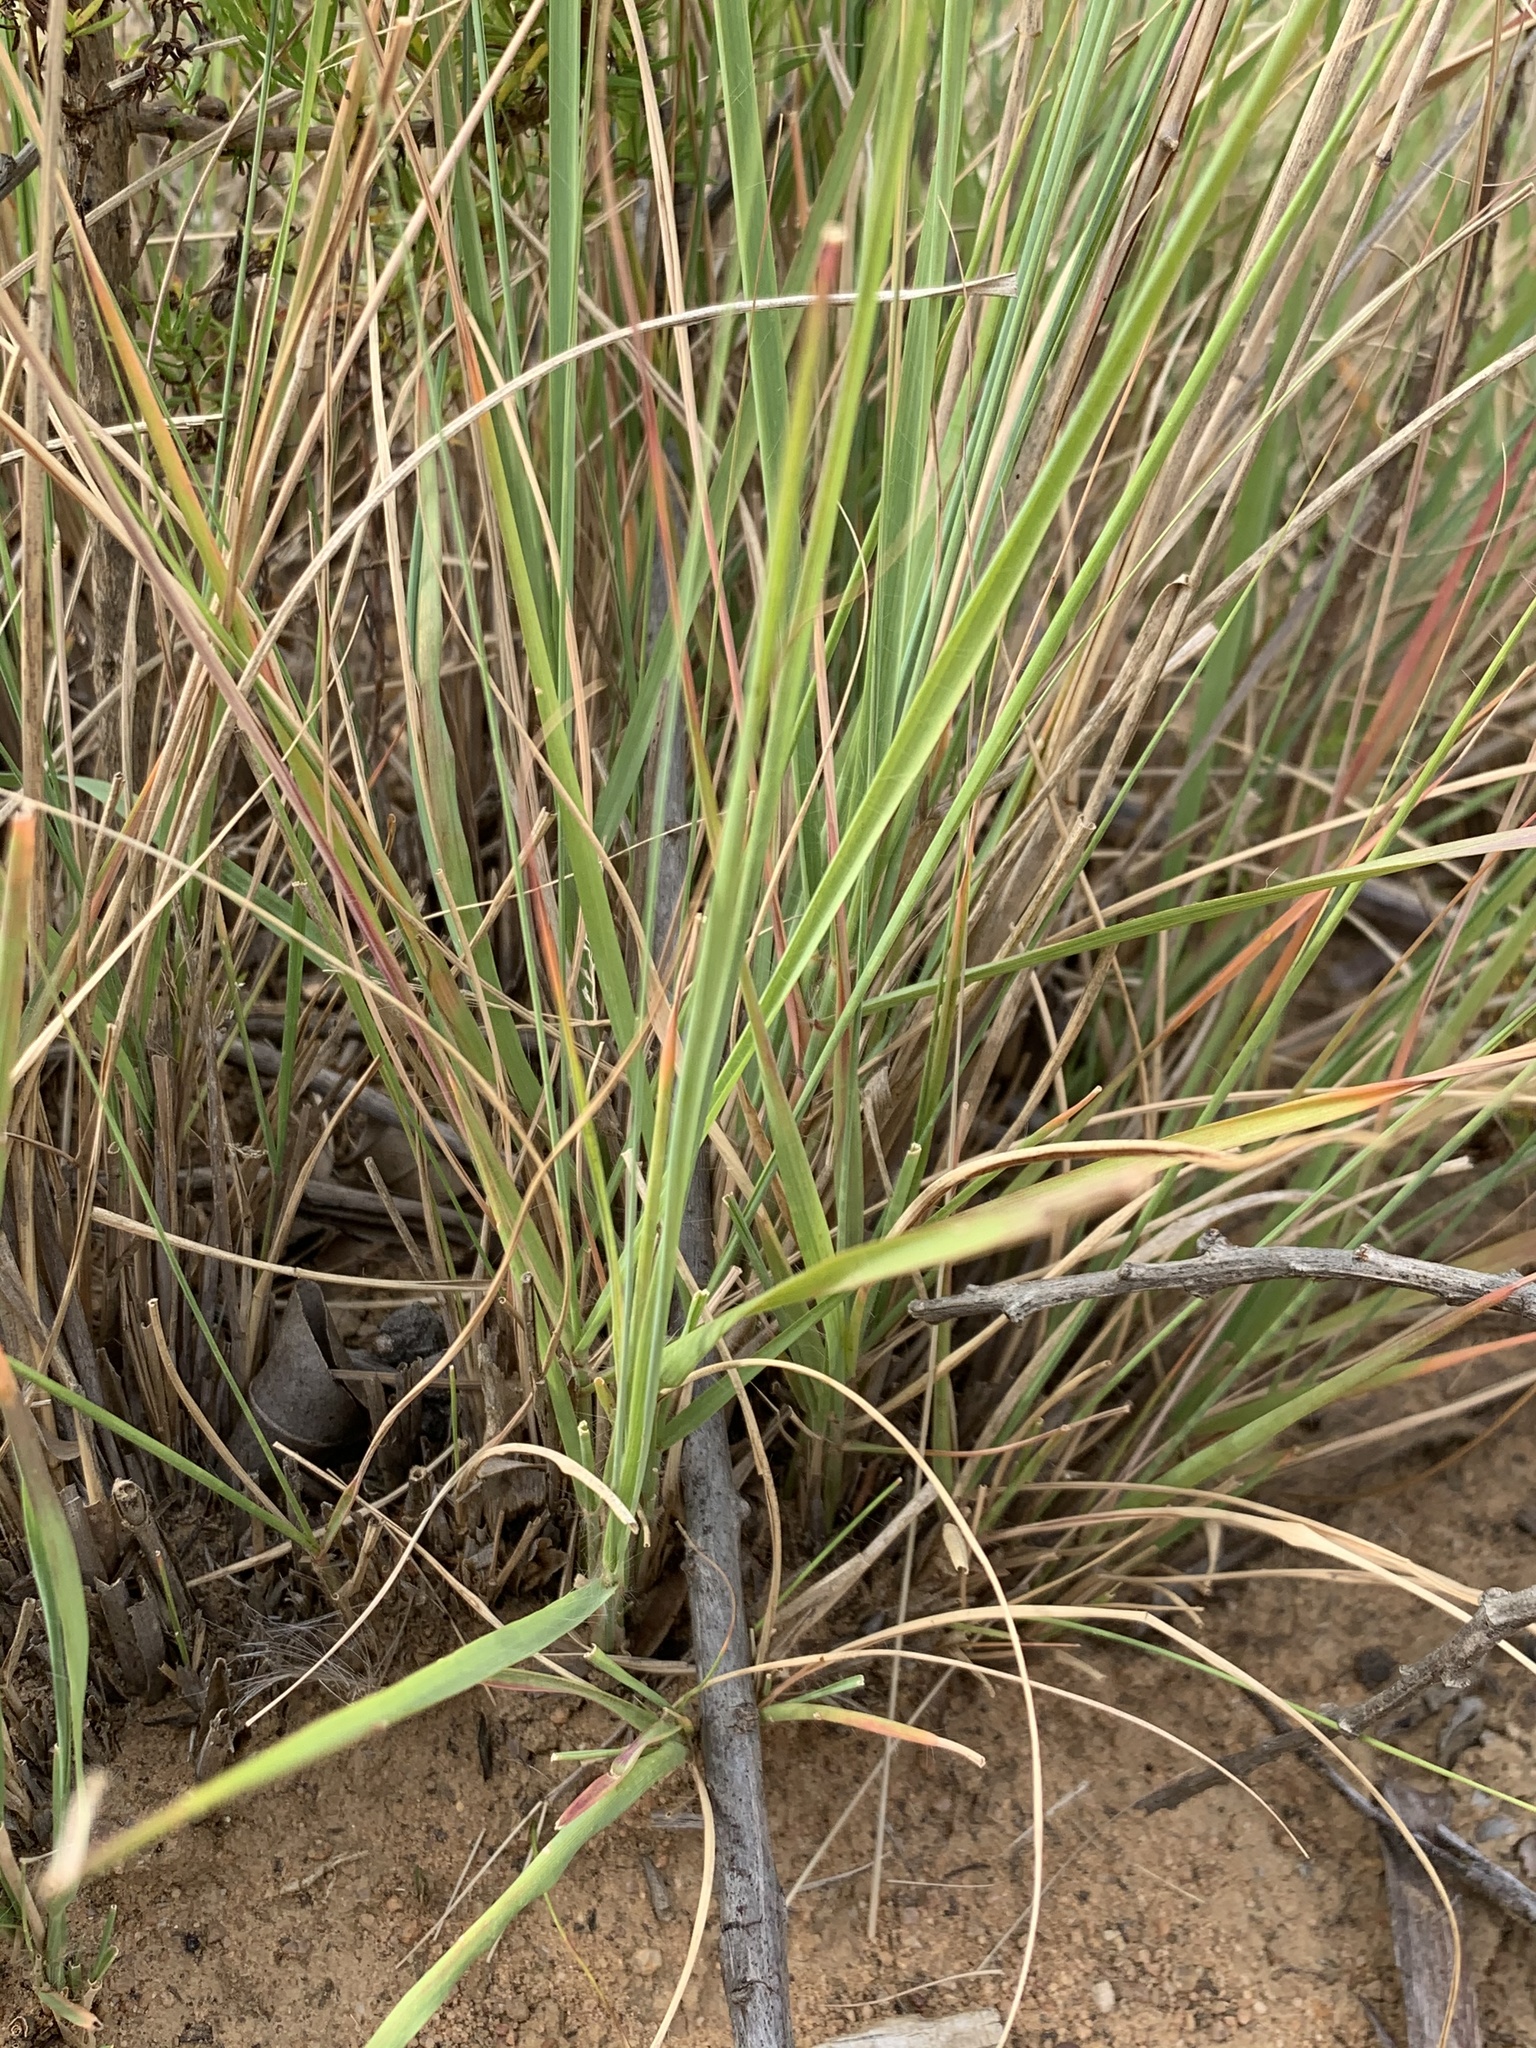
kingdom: Plantae
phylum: Tracheophyta
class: Liliopsida
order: Poales
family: Poaceae
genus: Eragrostis
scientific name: Eragrostis curvula
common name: African love-grass
